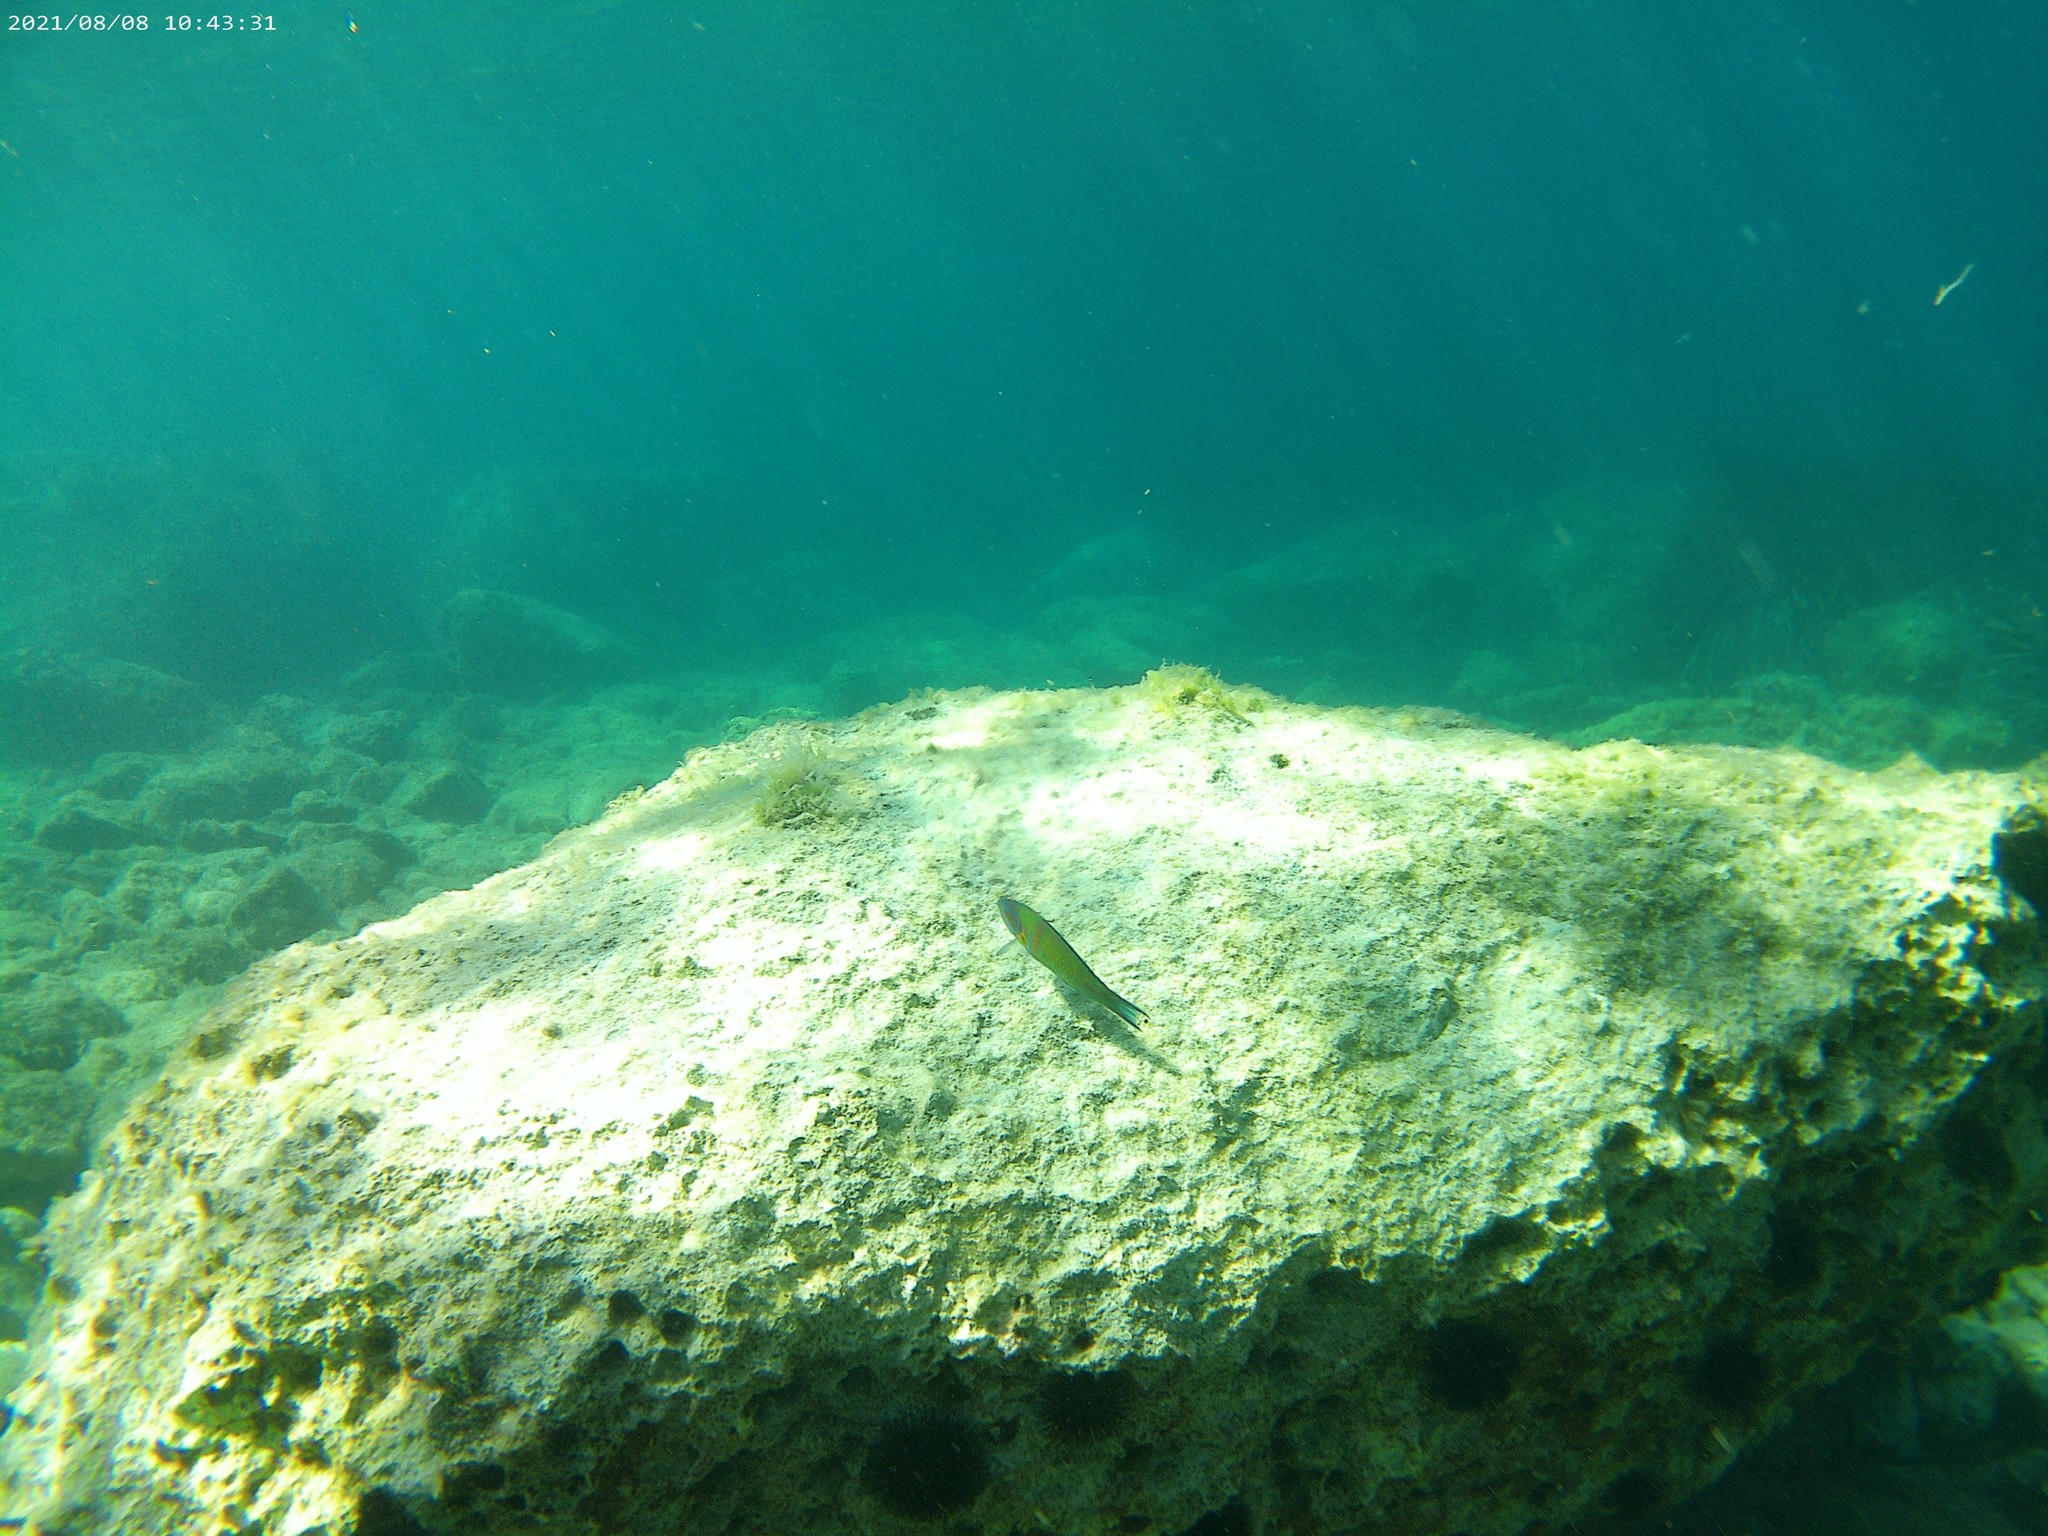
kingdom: Animalia
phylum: Chordata
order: Perciformes
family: Labridae
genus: Thalassoma
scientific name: Thalassoma pavo
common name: Ornate wrasse
